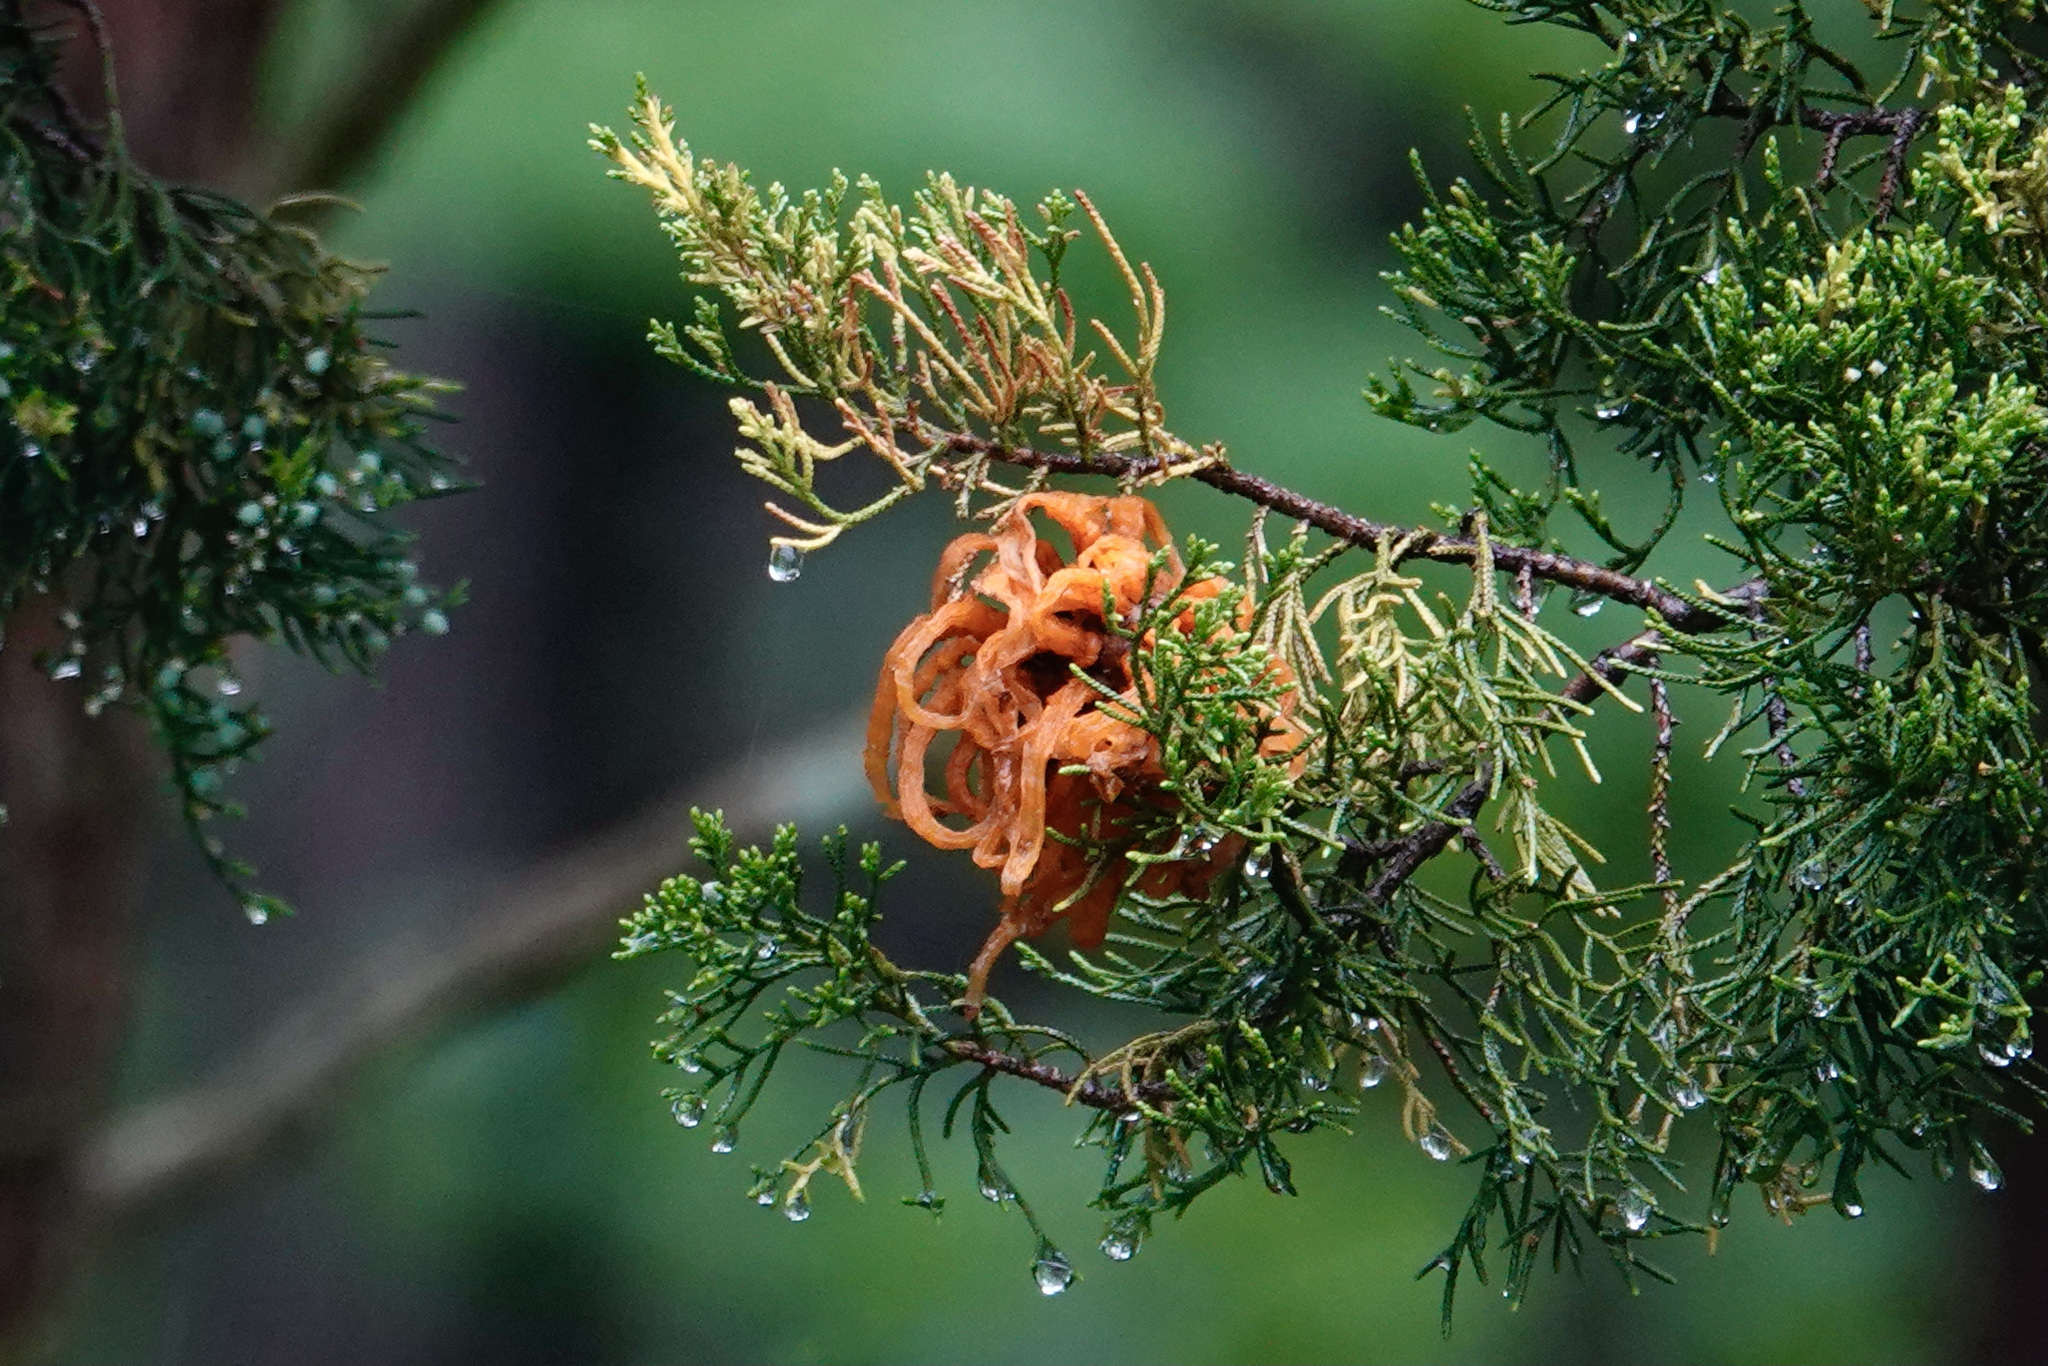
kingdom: Fungi
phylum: Basidiomycota
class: Pucciniomycetes
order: Pucciniales
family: Gymnosporangiaceae
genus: Gymnosporangium
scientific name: Gymnosporangium juniperi-virginianae
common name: Juniper-apple rust
